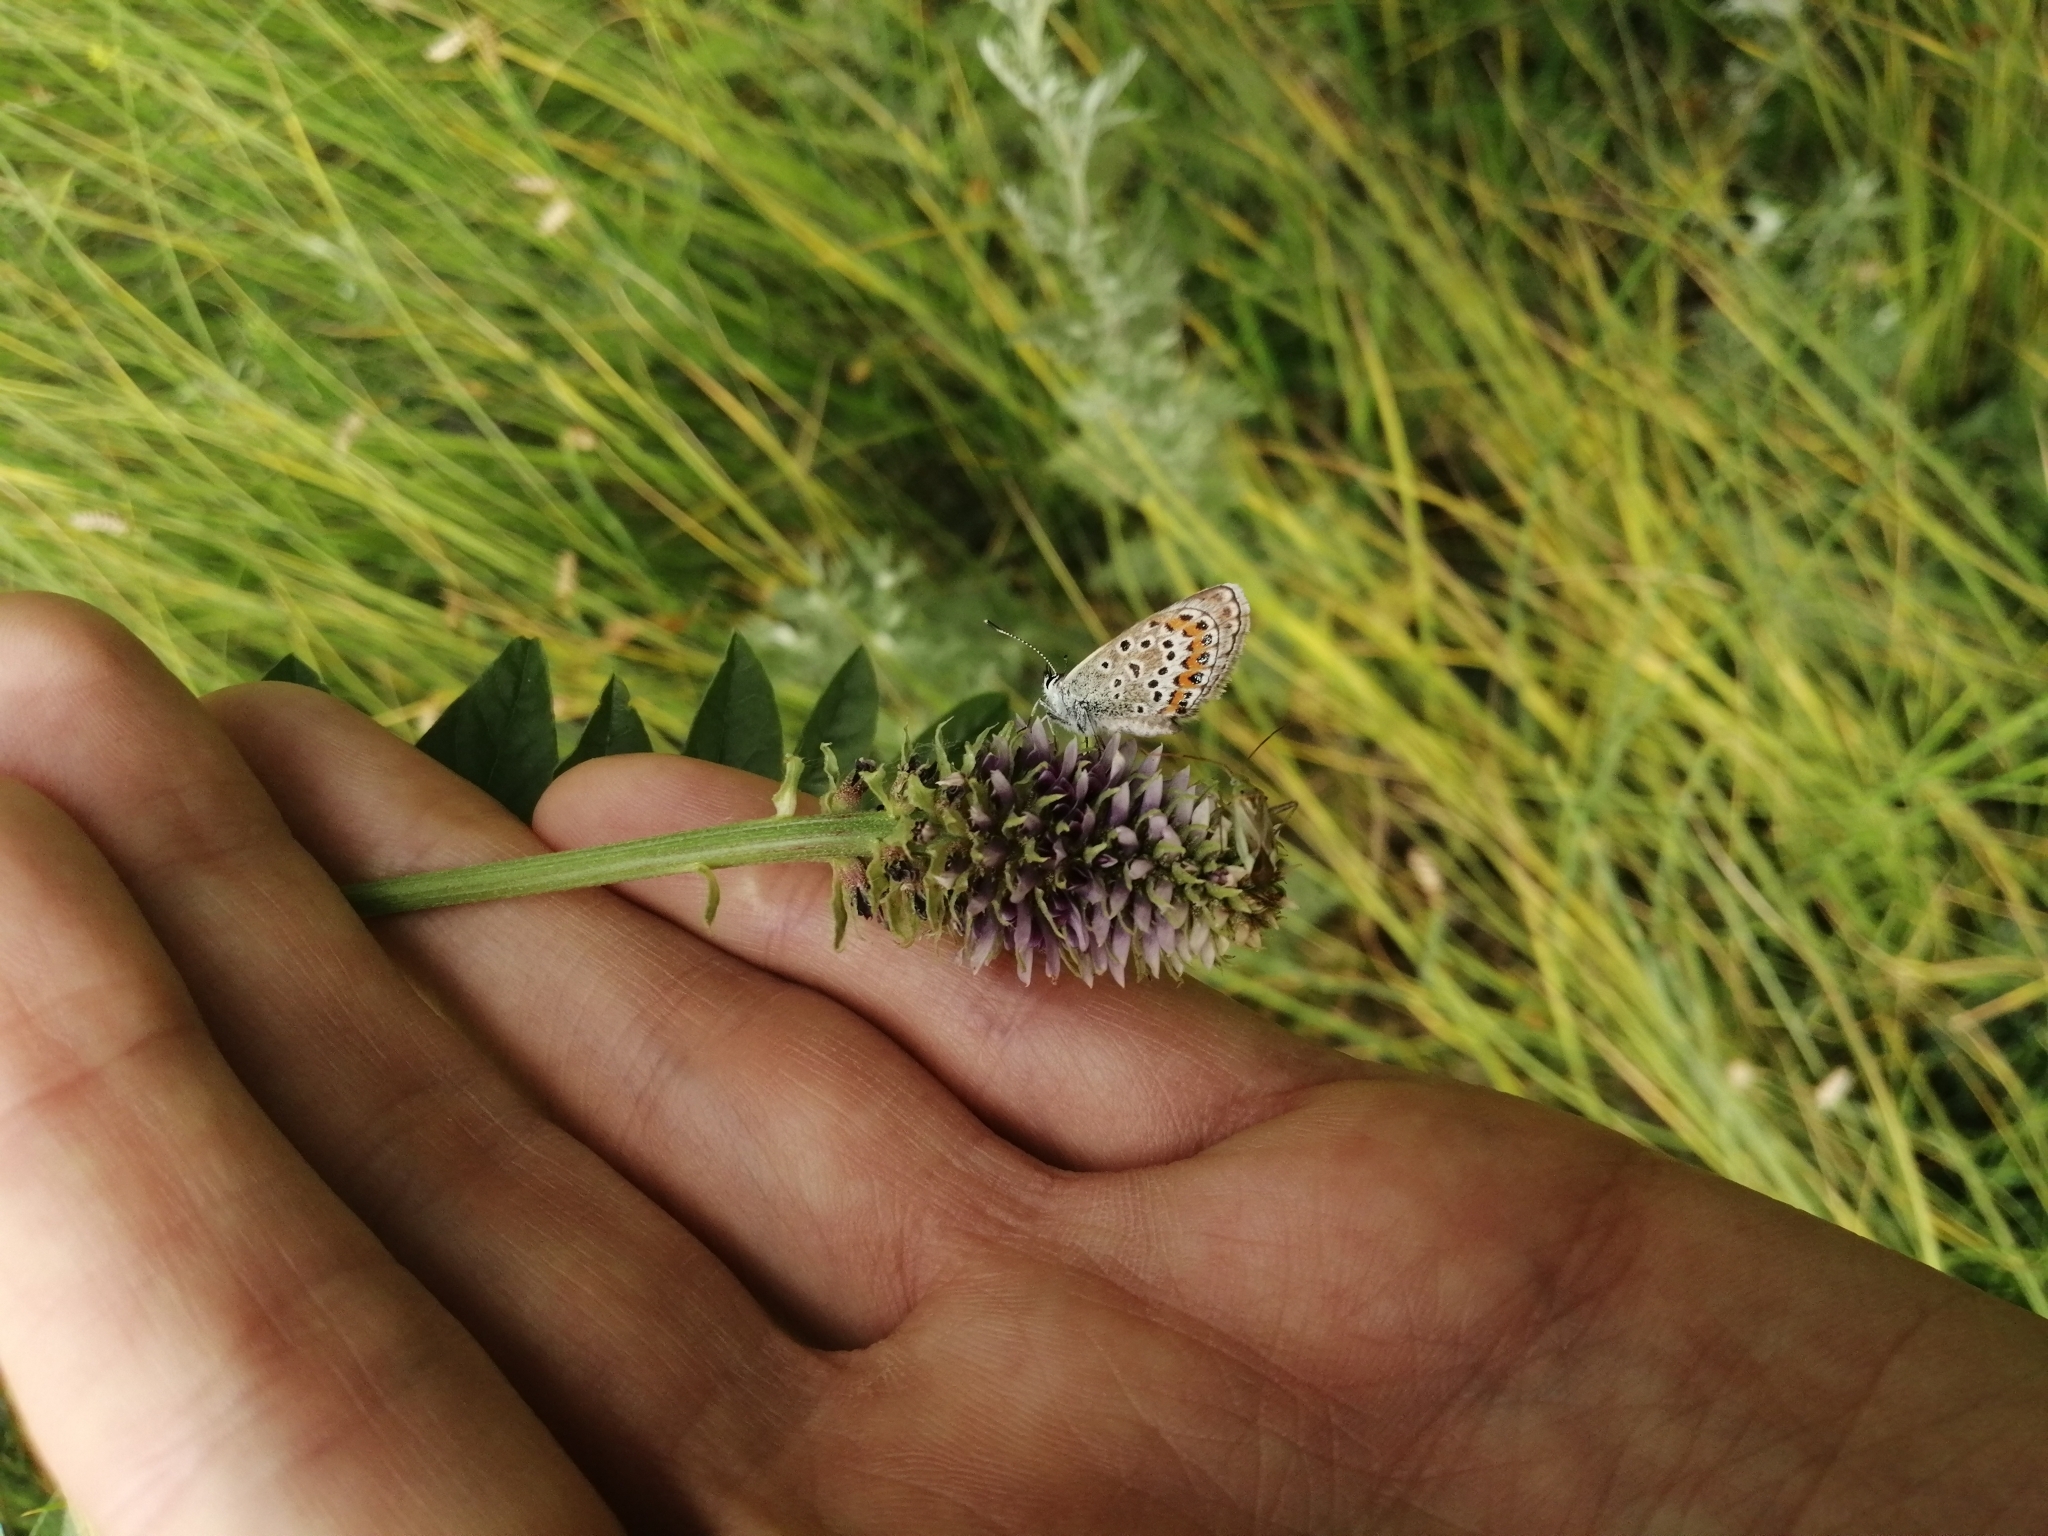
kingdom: Animalia
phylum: Arthropoda
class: Insecta
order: Lepidoptera
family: Lycaenidae
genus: Plebejus
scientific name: Plebejus argus
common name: Silver-studded blue
